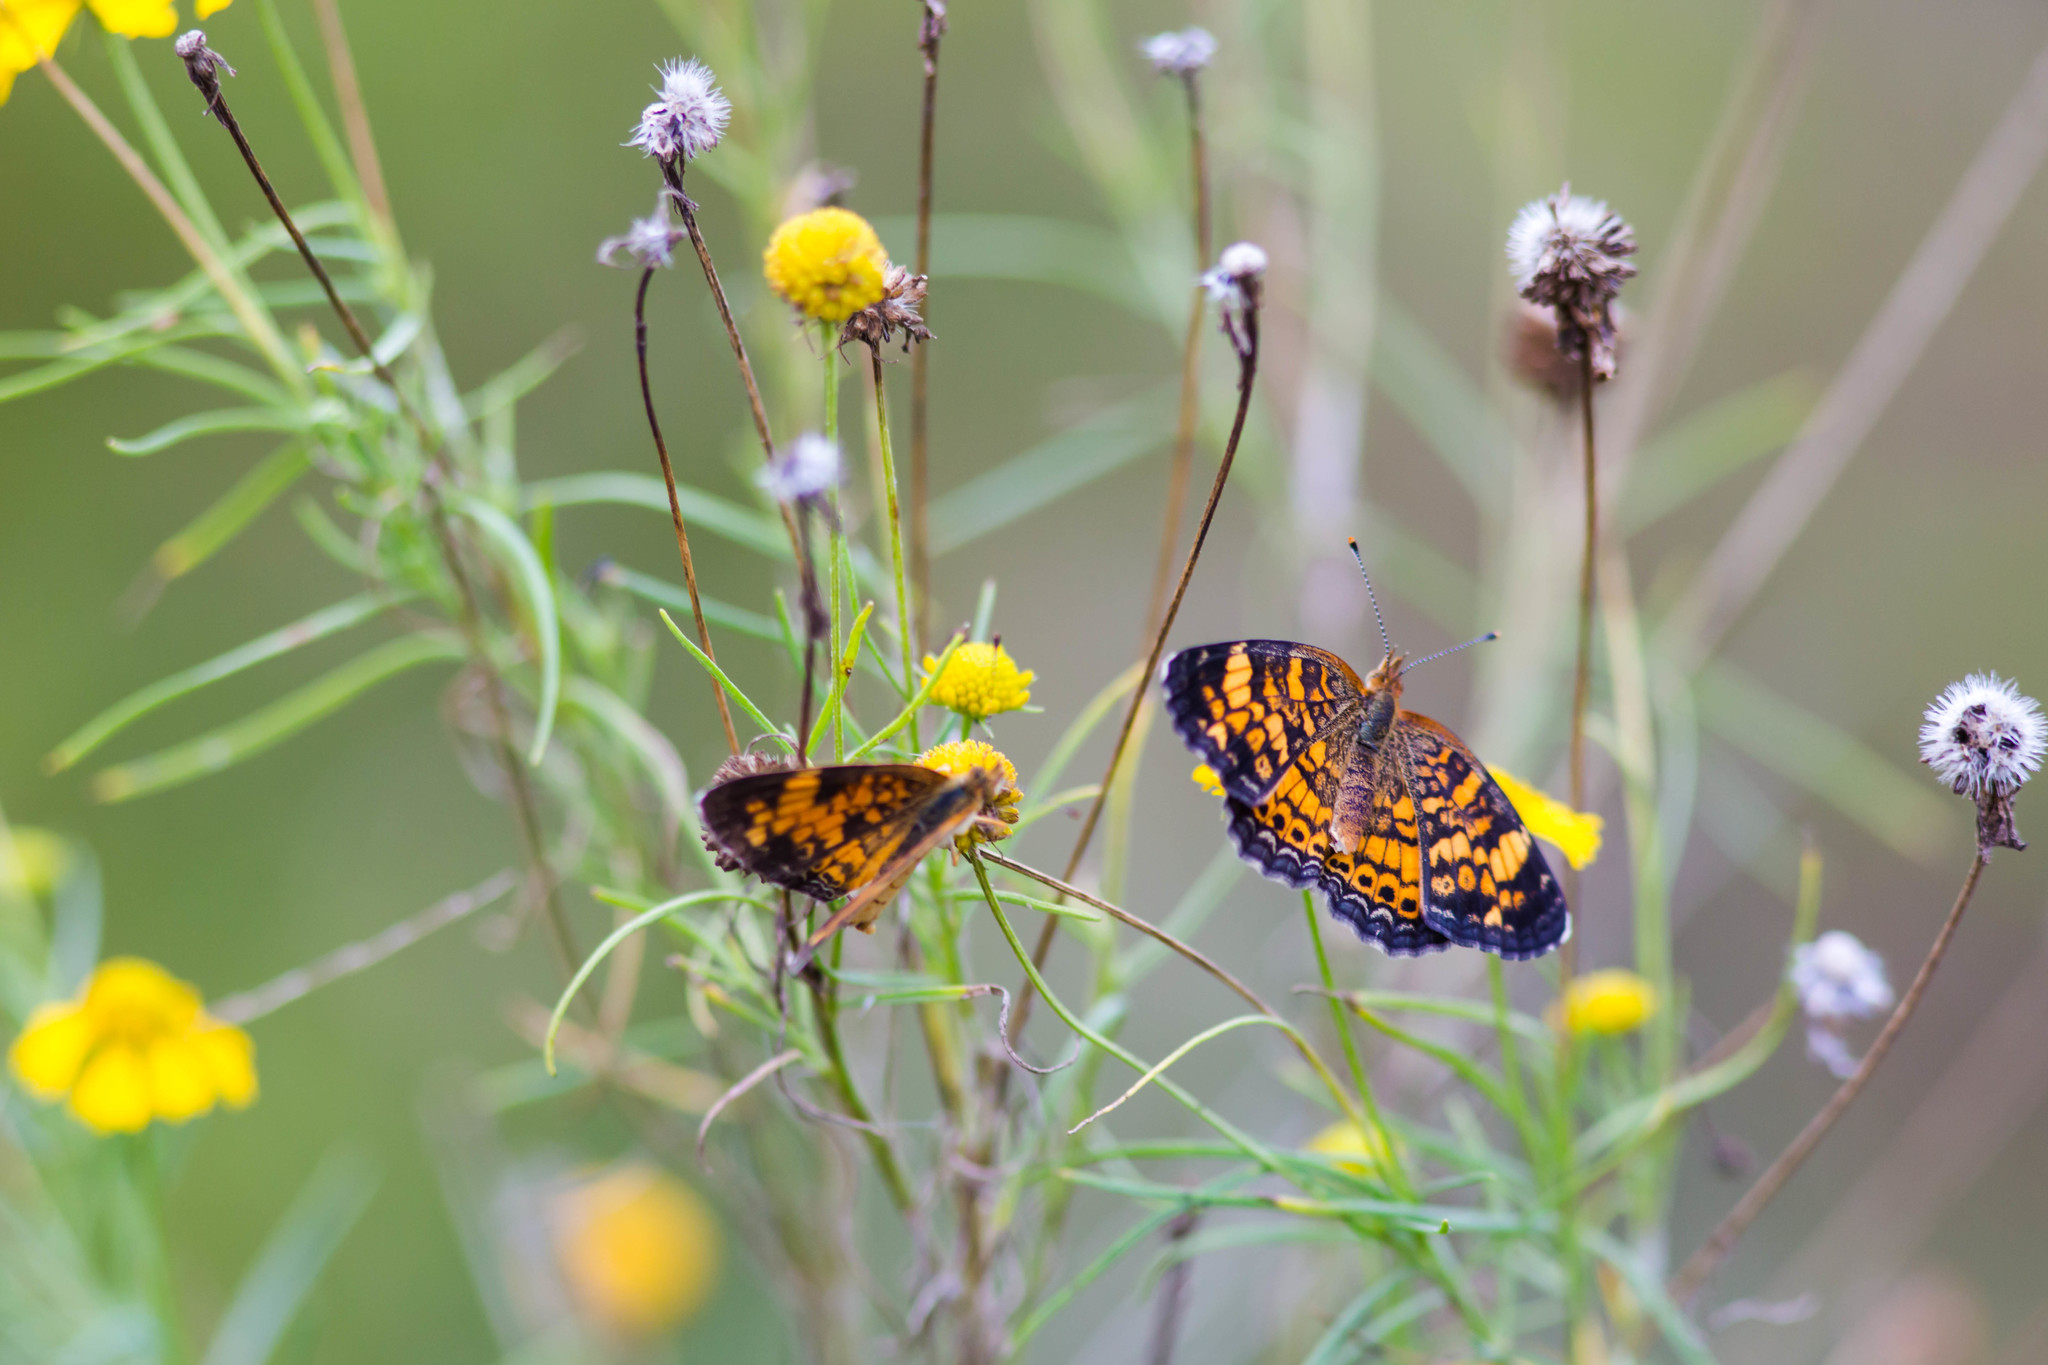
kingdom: Animalia
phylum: Arthropoda
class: Insecta
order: Lepidoptera
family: Nymphalidae
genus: Phyciodes
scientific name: Phyciodes tharos
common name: Pearl crescent
